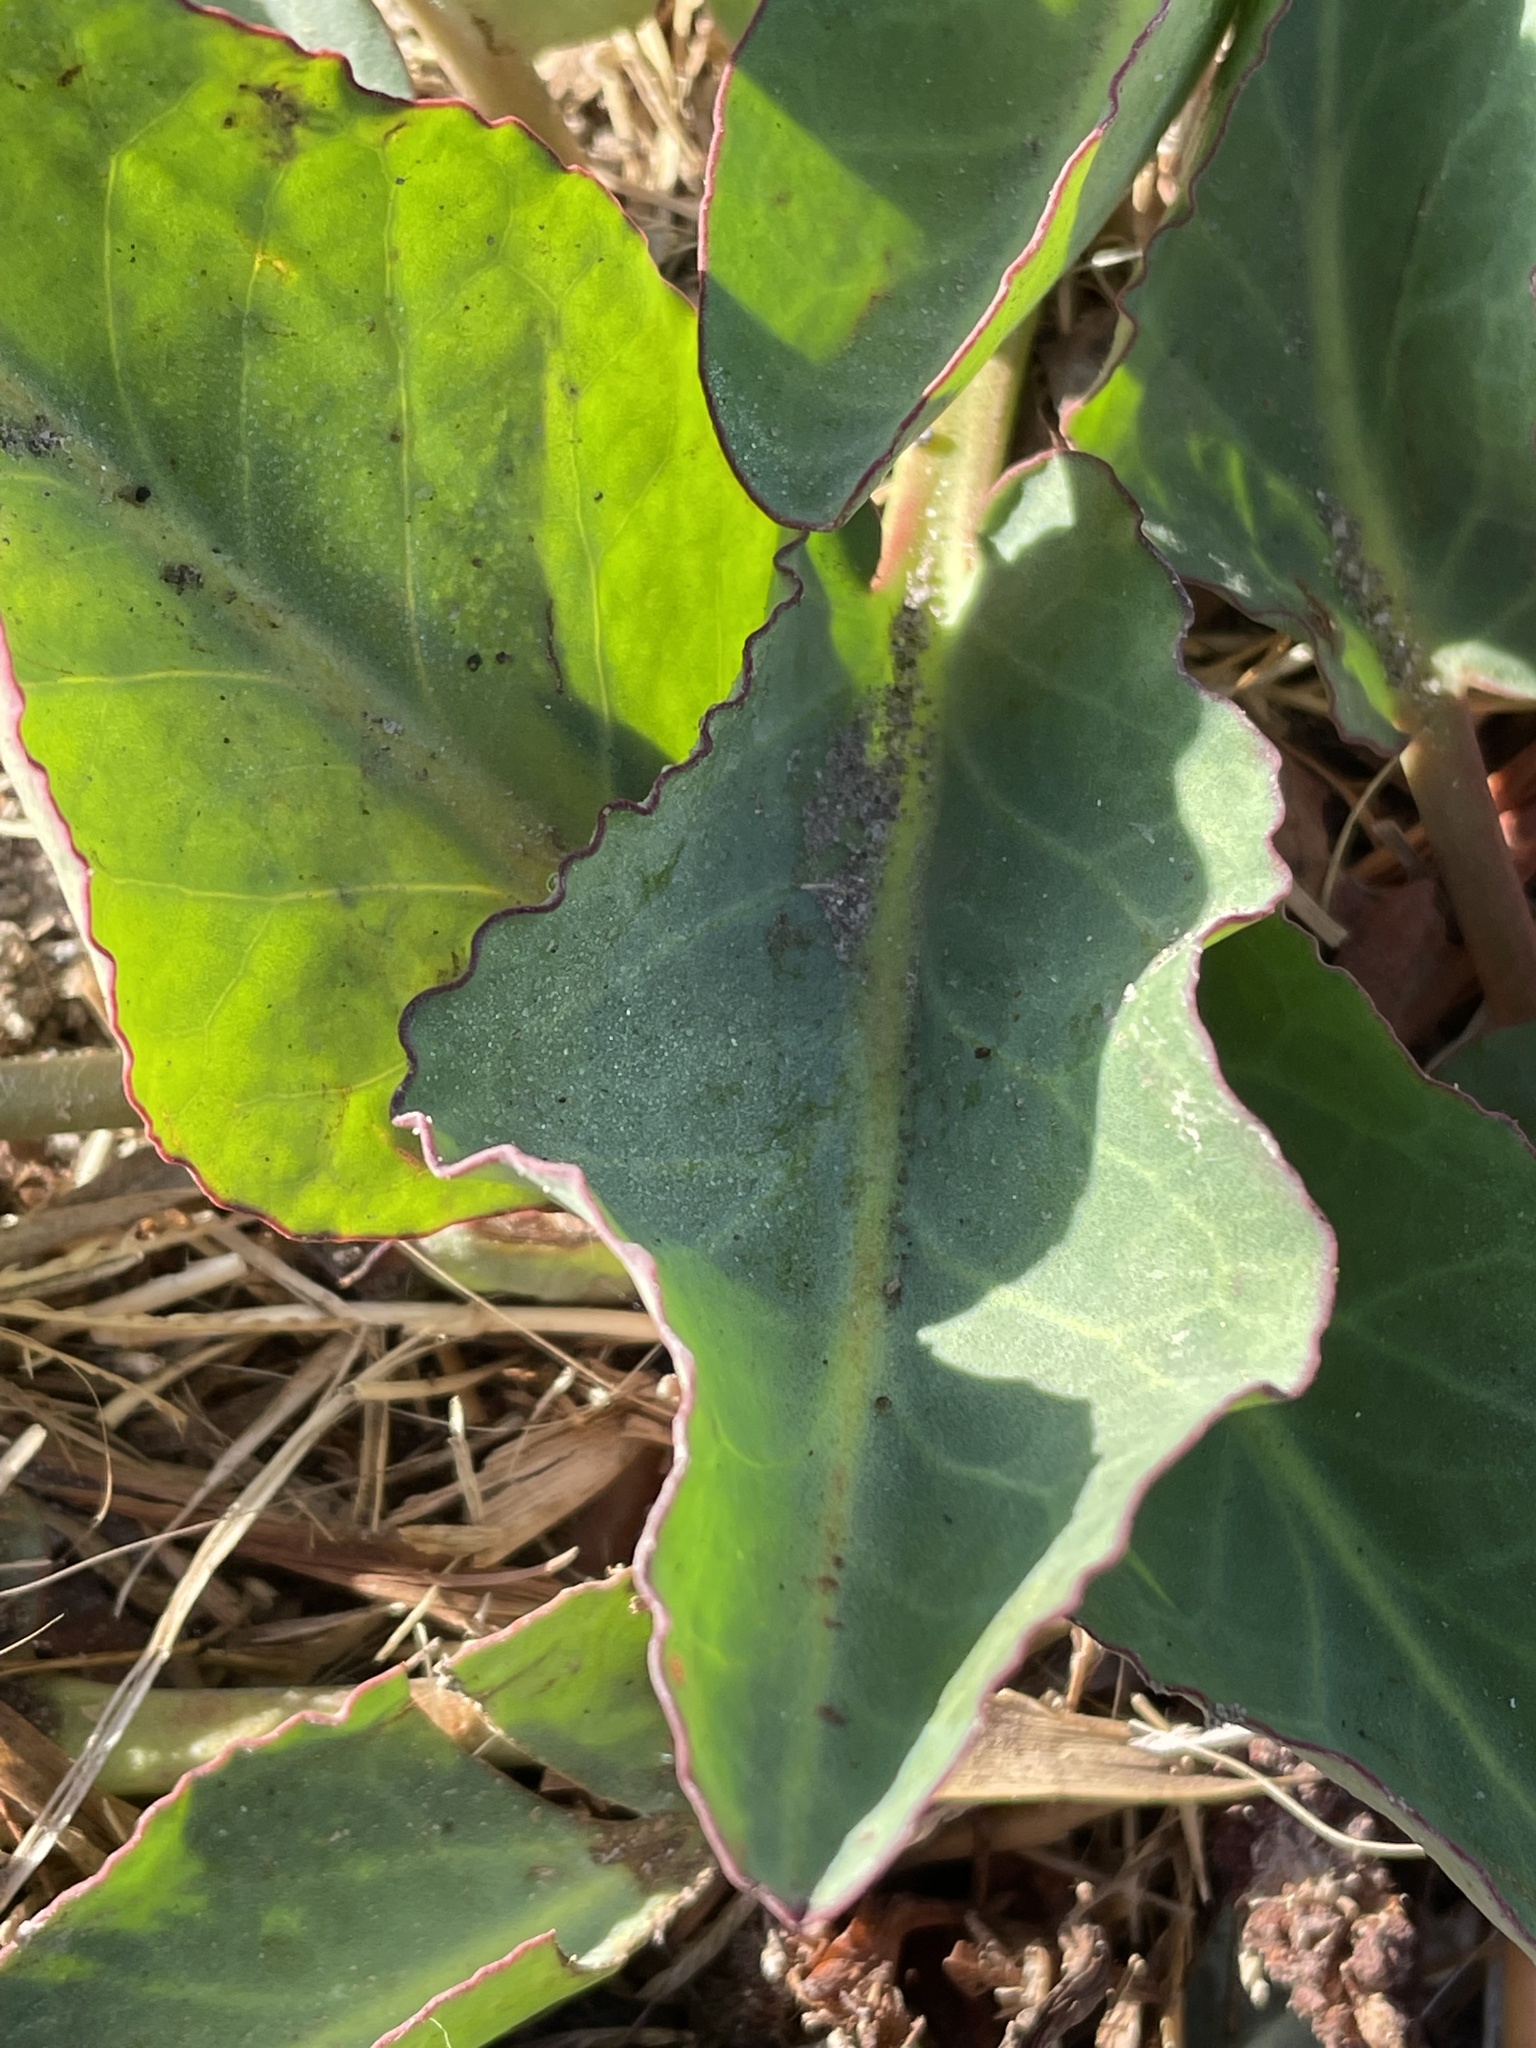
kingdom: Plantae
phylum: Tracheophyta
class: Magnoliopsida
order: Piperales
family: Saururaceae
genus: Anemopsis
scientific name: Anemopsis californica
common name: Apache-beads
